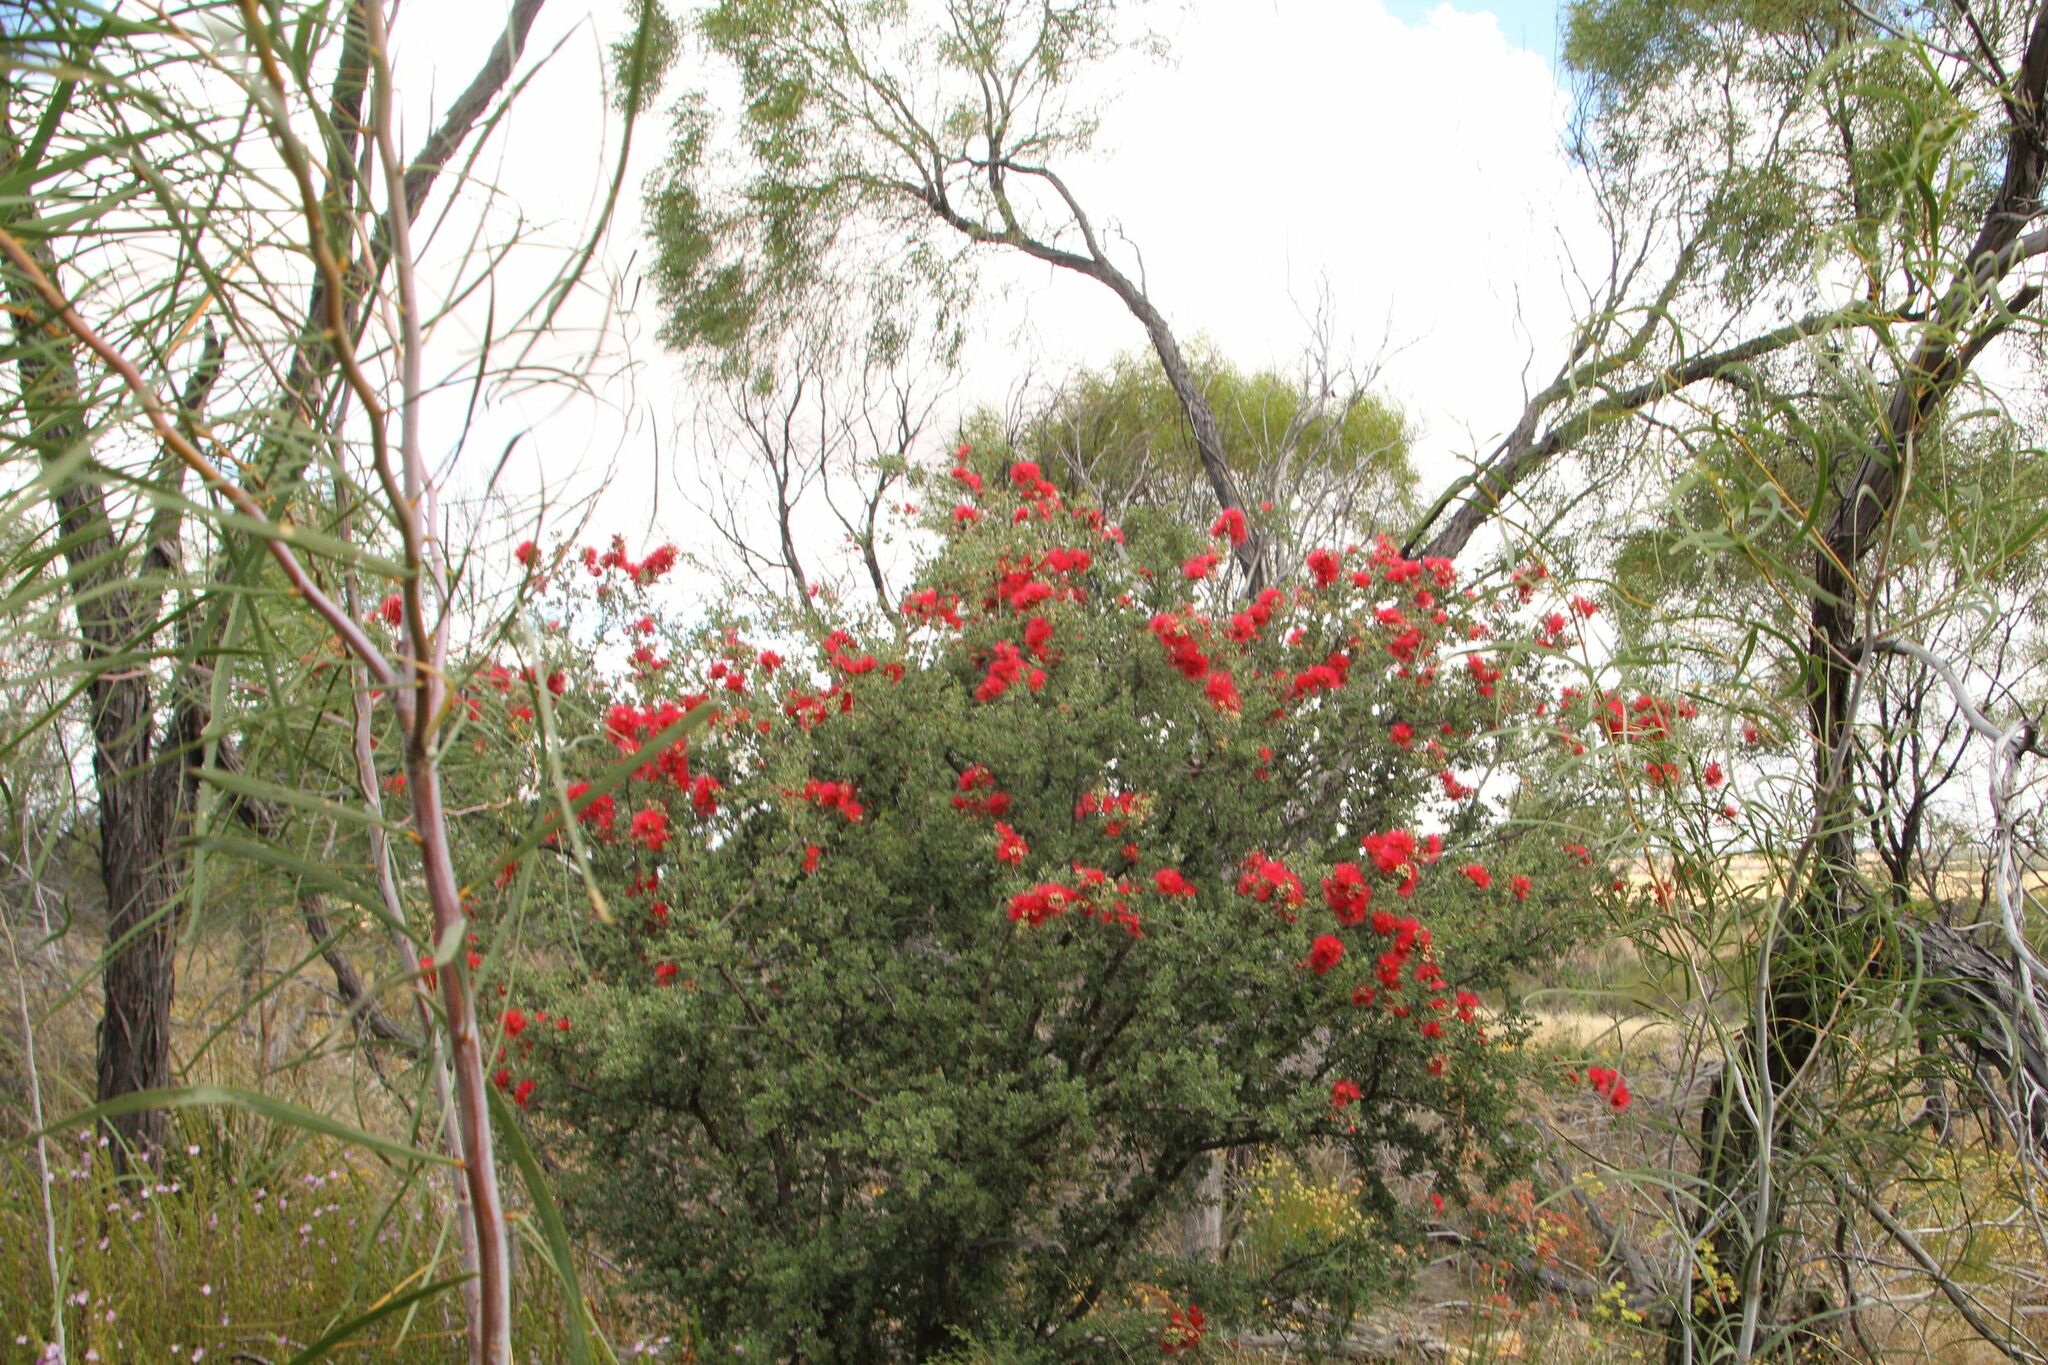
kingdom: Plantae
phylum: Tracheophyta
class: Magnoliopsida
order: Myrtales
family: Myrtaceae
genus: Kunzea
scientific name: Kunzea pulchella
